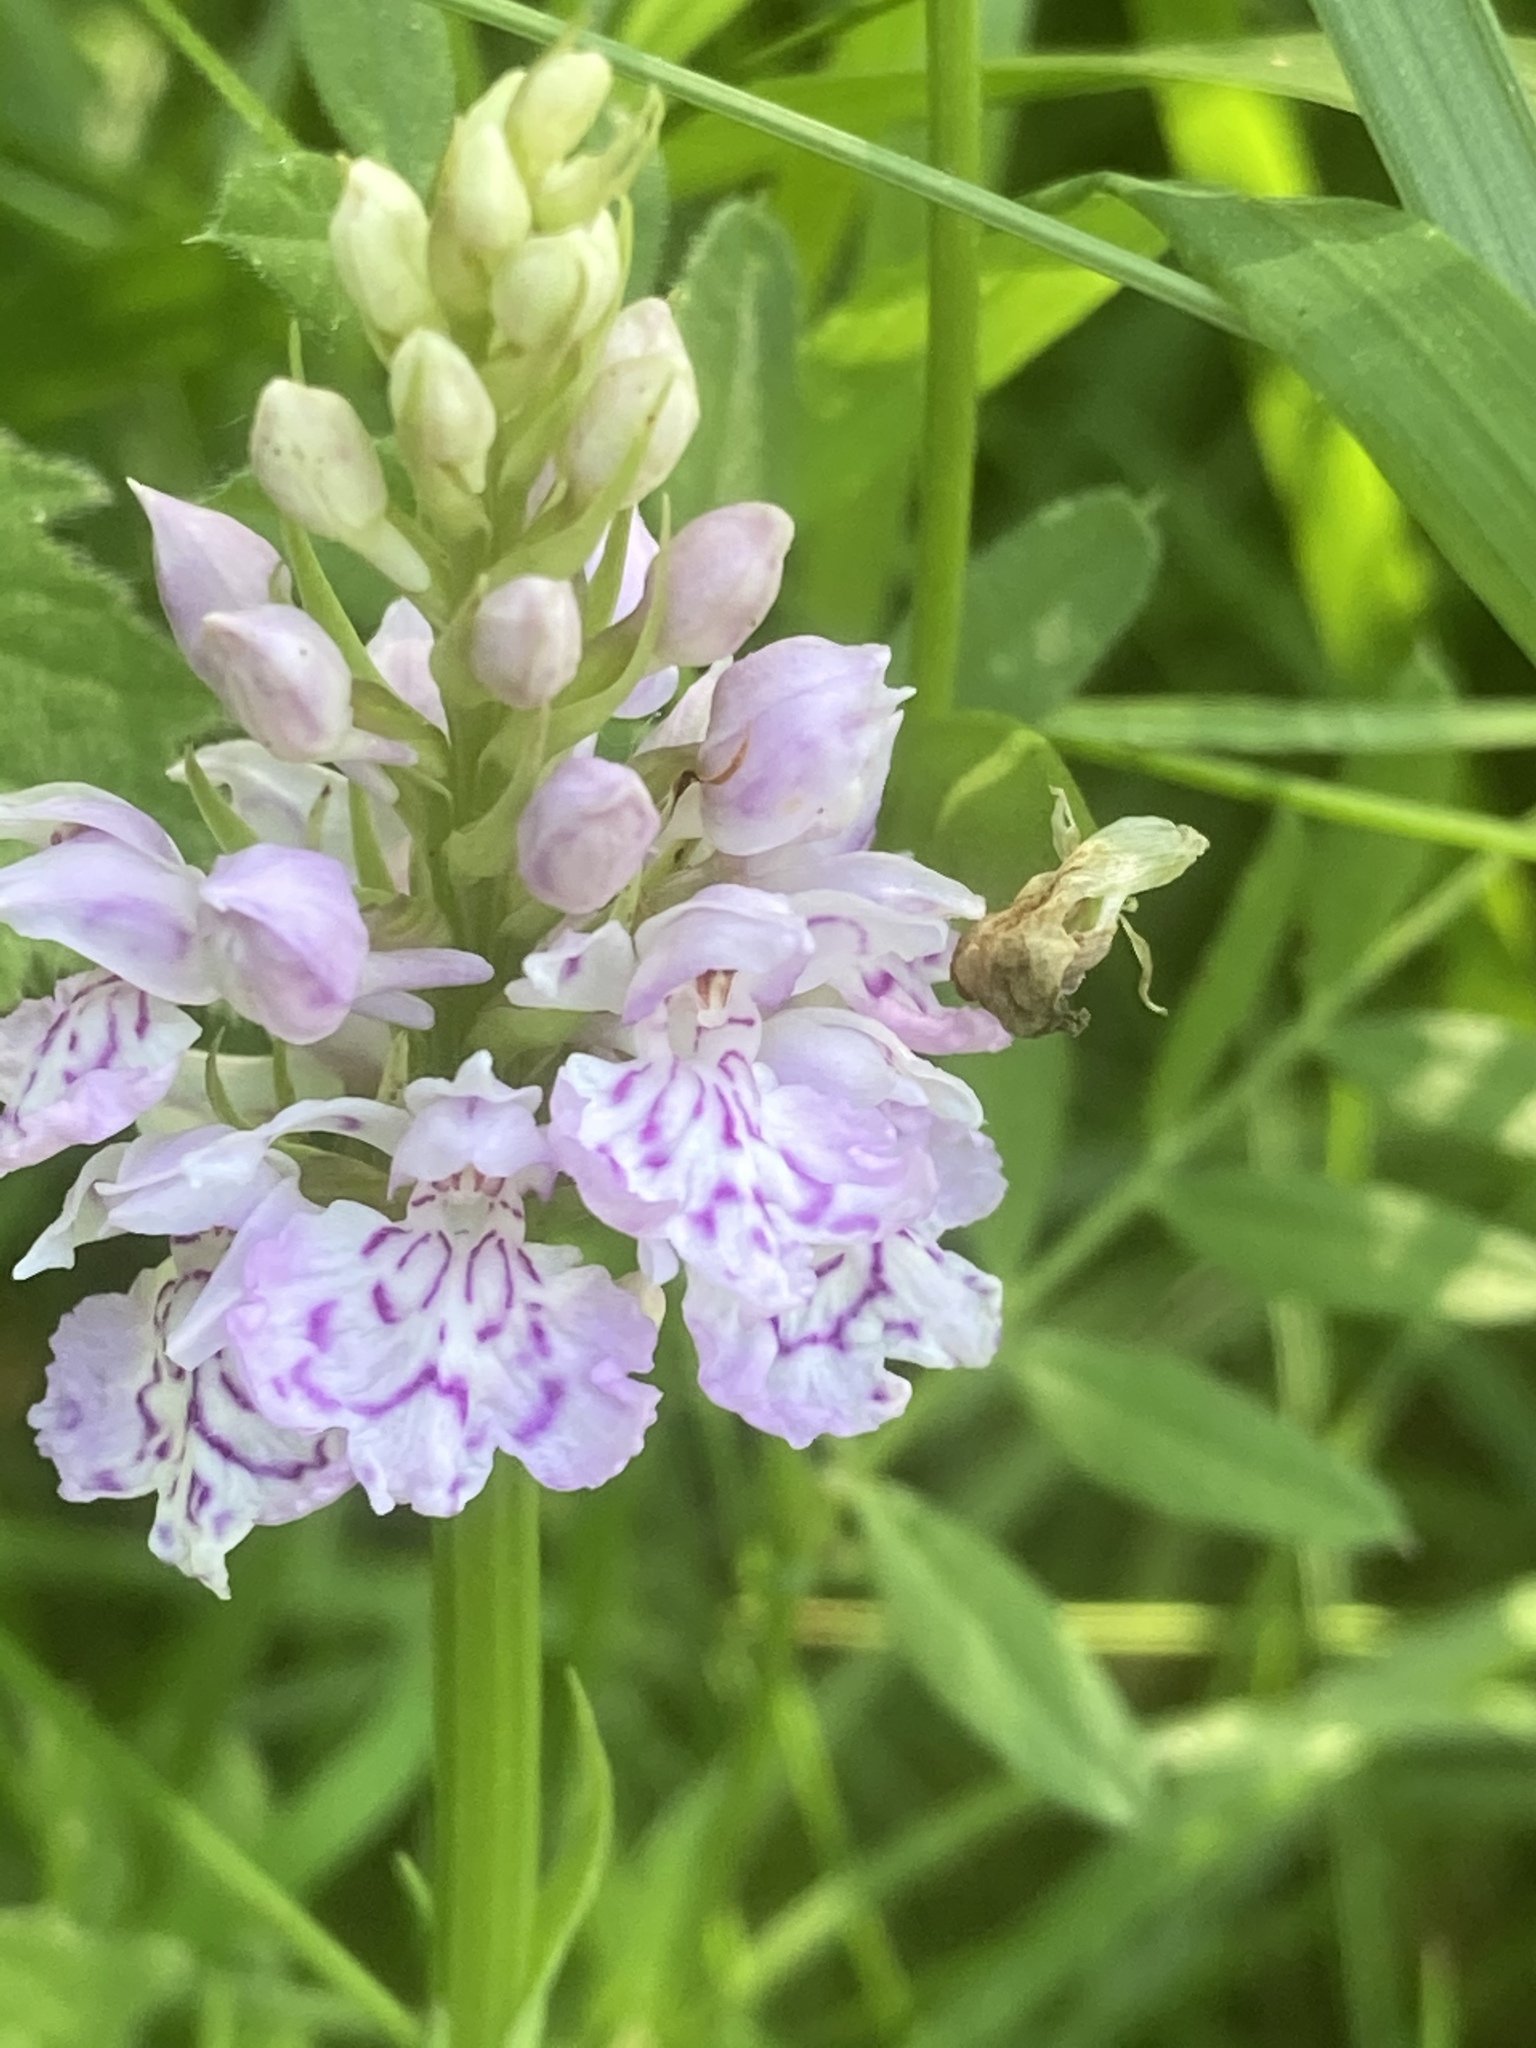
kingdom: Plantae
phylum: Tracheophyta
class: Liliopsida
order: Asparagales
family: Orchidaceae
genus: Dactylorhiza
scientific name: Dactylorhiza maculata
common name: Heath spotted-orchid
